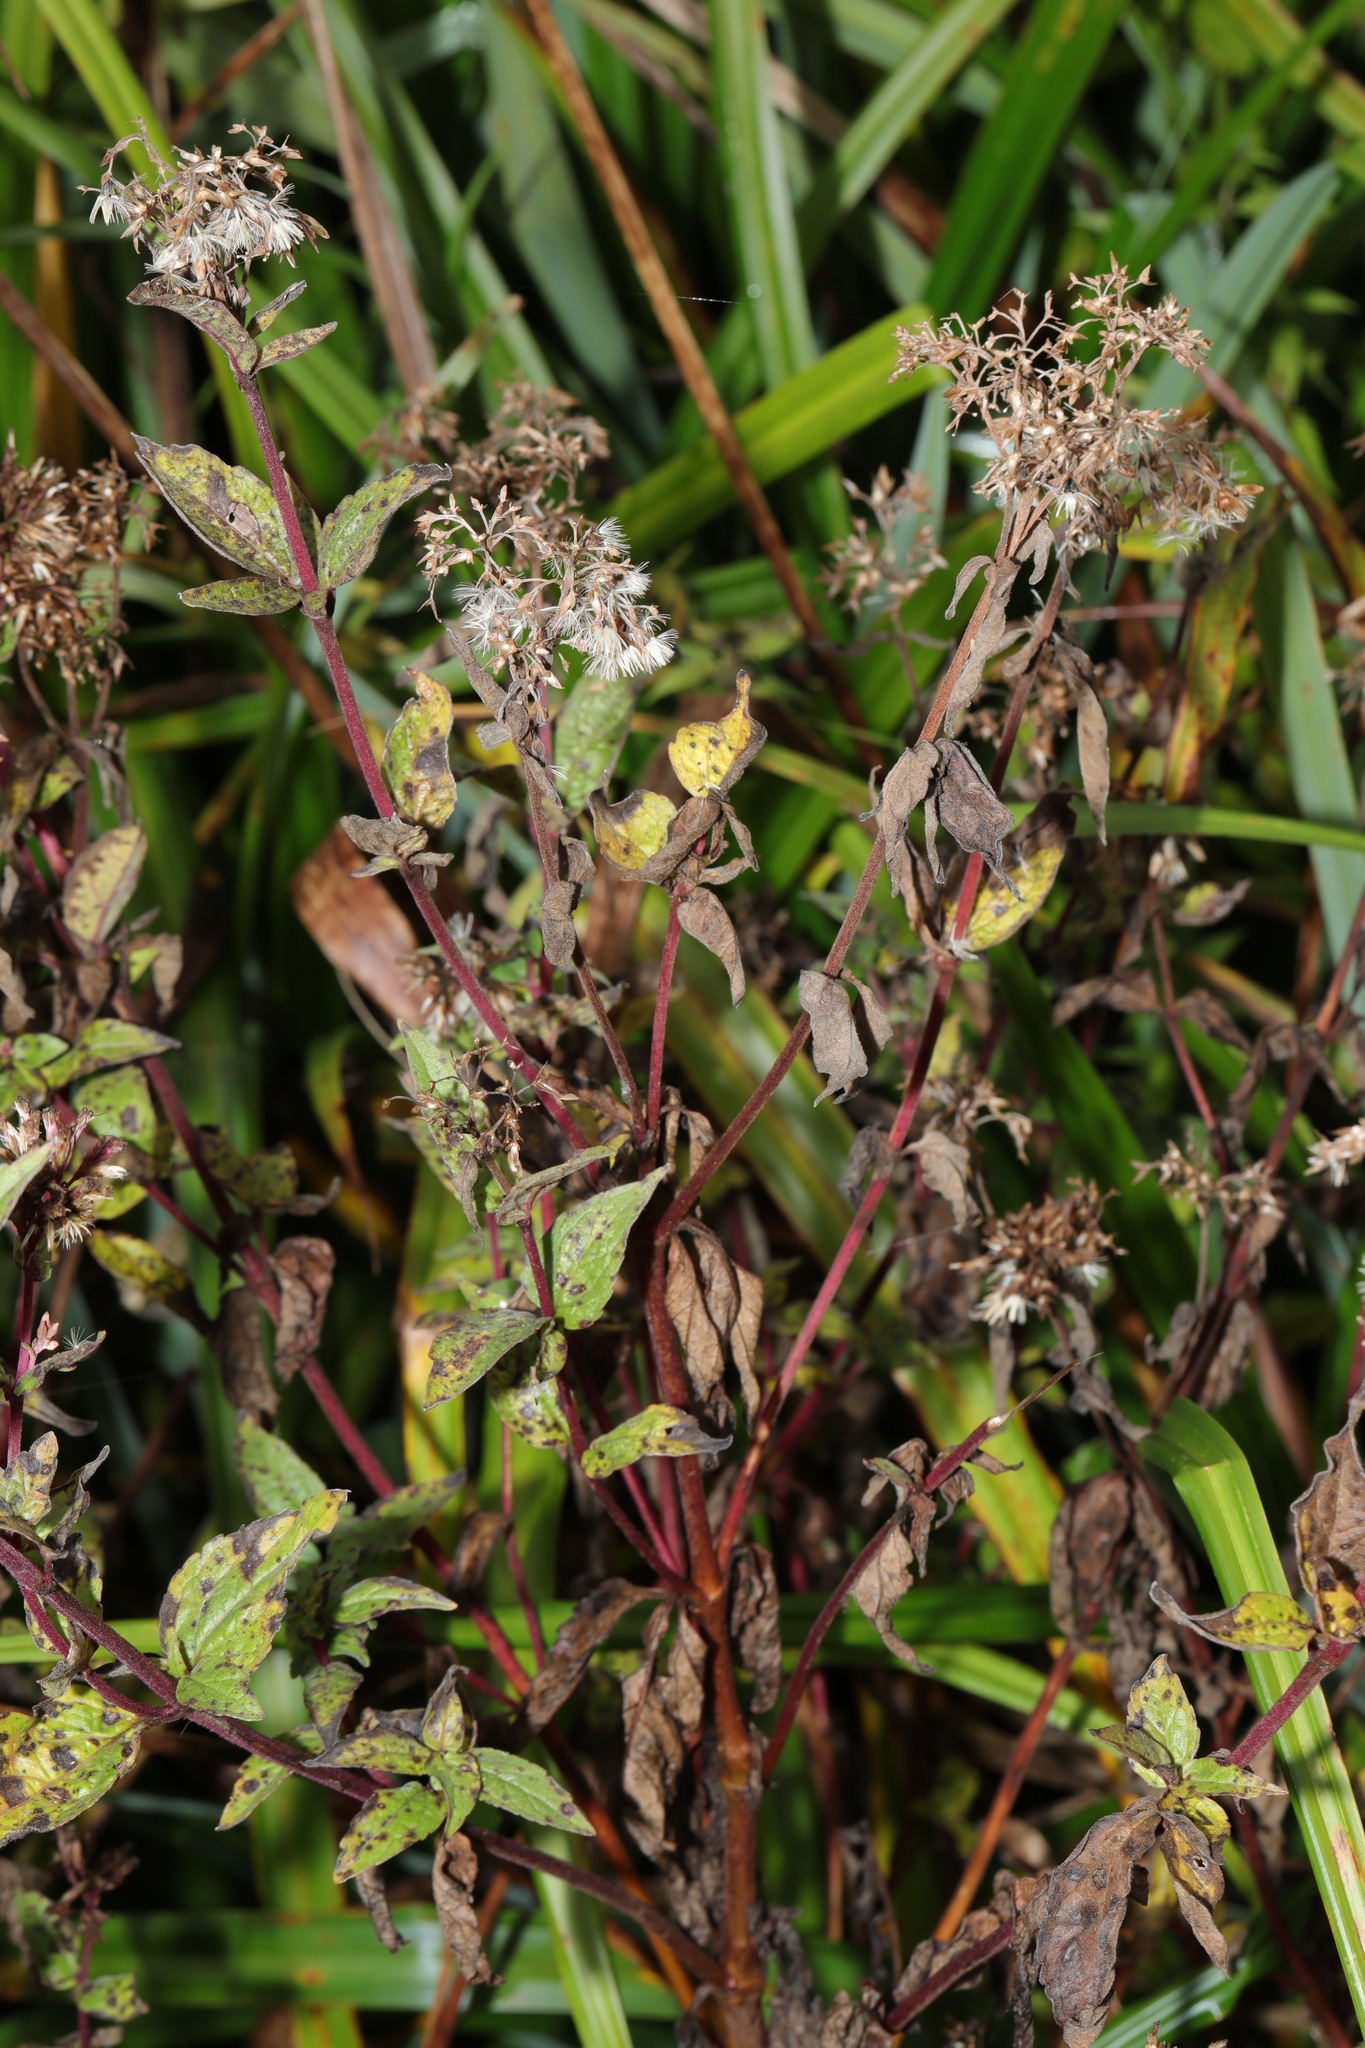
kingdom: Plantae
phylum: Tracheophyta
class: Magnoliopsida
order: Asterales
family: Asteraceae
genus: Eupatorium
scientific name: Eupatorium cannabinum
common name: Hemp-agrimony
